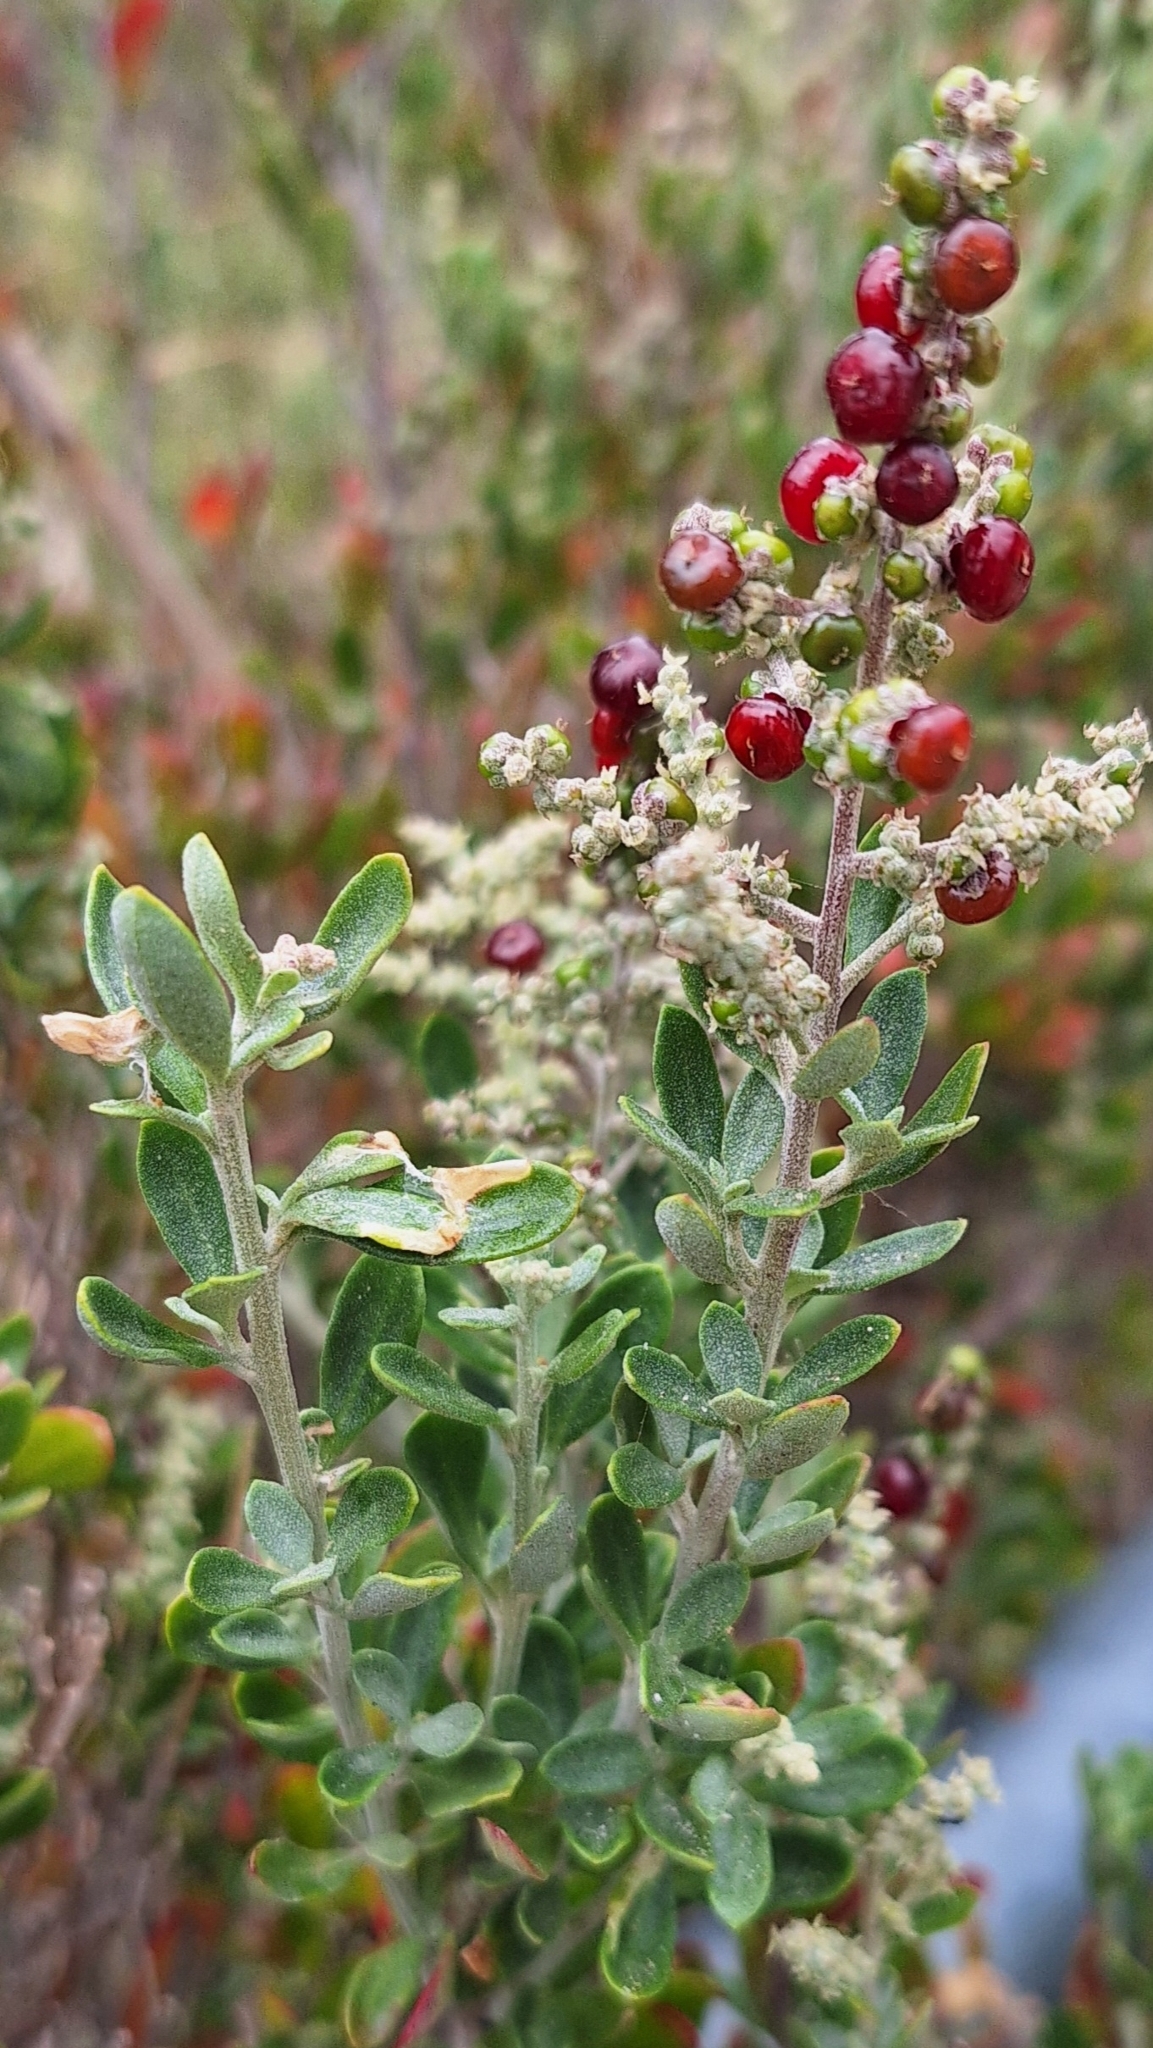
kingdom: Plantae
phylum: Tracheophyta
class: Magnoliopsida
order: Caryophyllales
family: Amaranthaceae
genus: Chenopodium
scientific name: Chenopodium candolleanum
